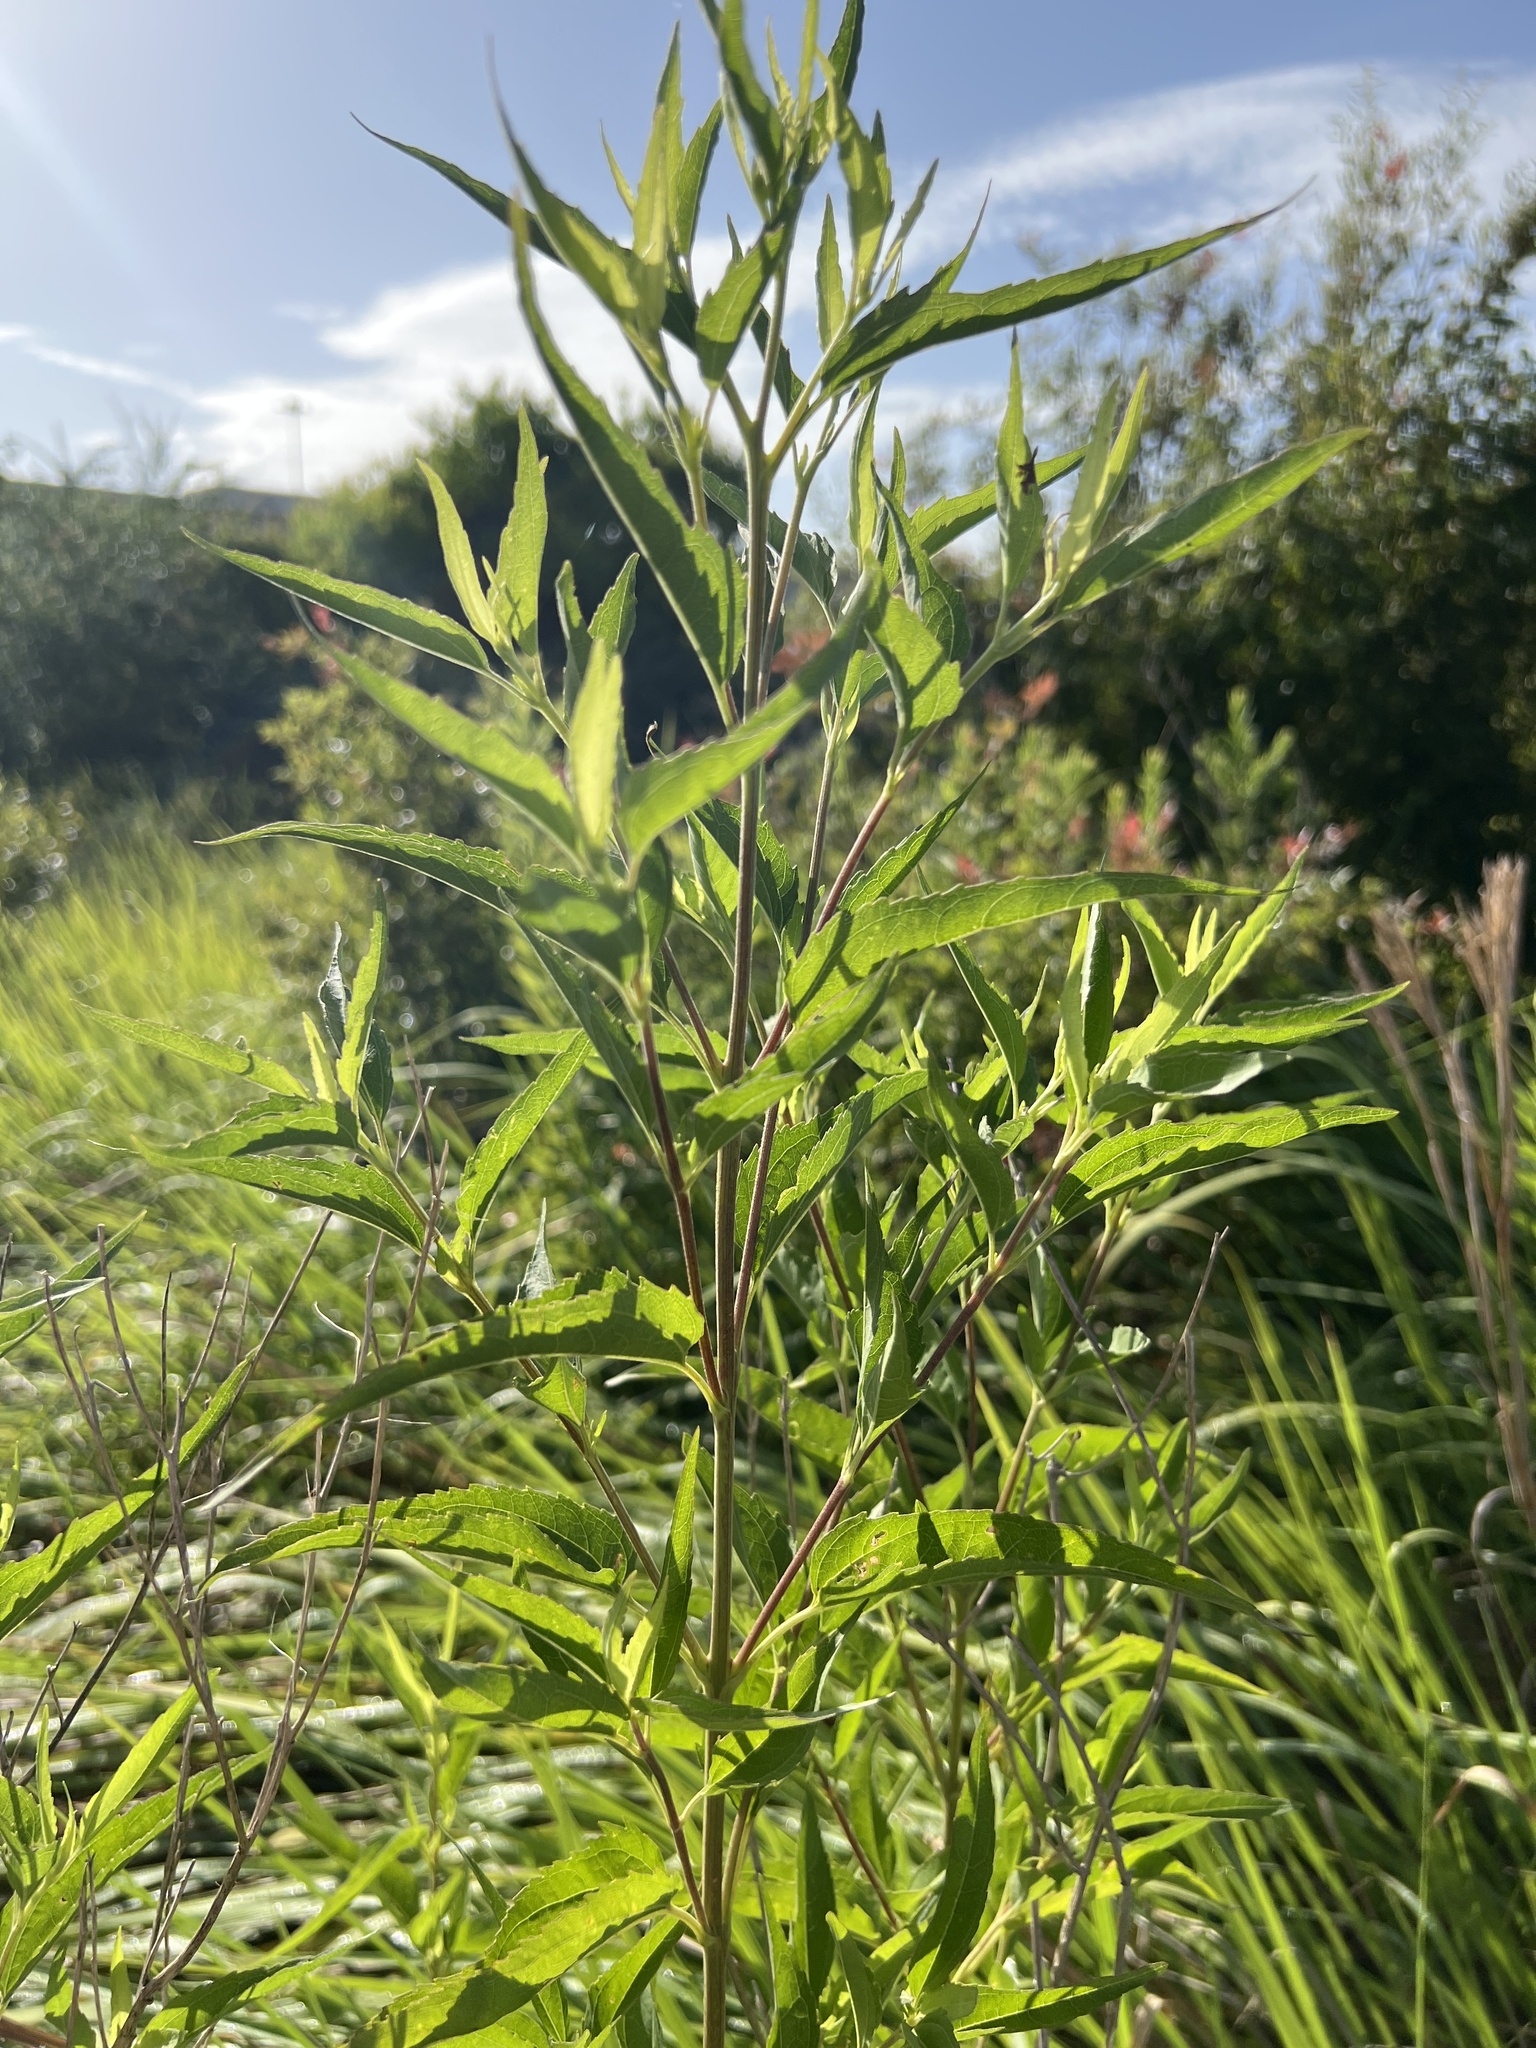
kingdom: Plantae
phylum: Tracheophyta
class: Magnoliopsida
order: Asterales
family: Asteraceae
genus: Eupatorium
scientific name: Eupatorium serotinum
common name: Late boneset
